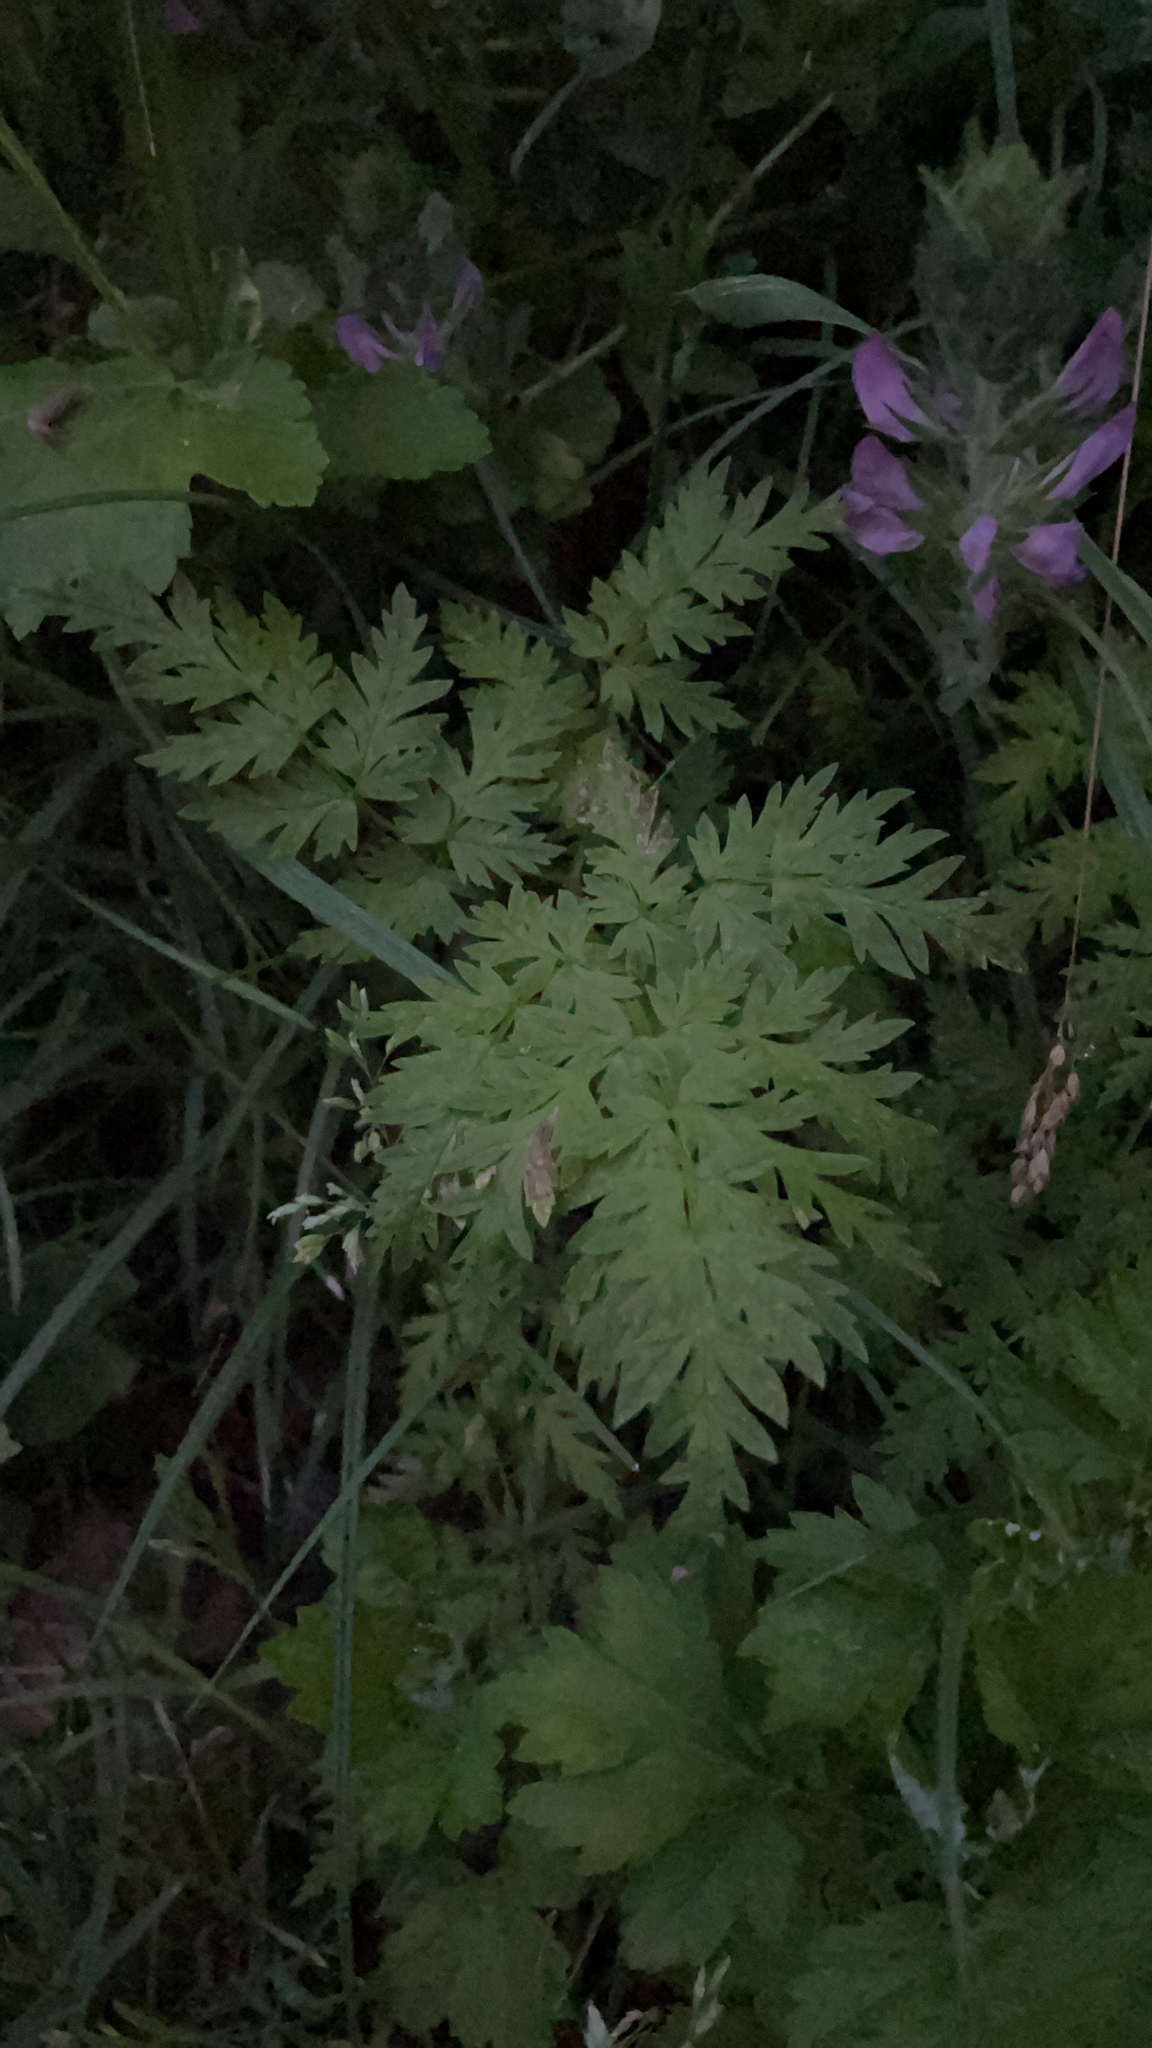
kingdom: Plantae
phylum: Tracheophyta
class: Magnoliopsida
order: Apiales
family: Apiaceae
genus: Anthriscus
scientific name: Anthriscus sylvestris
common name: Cow parsley
